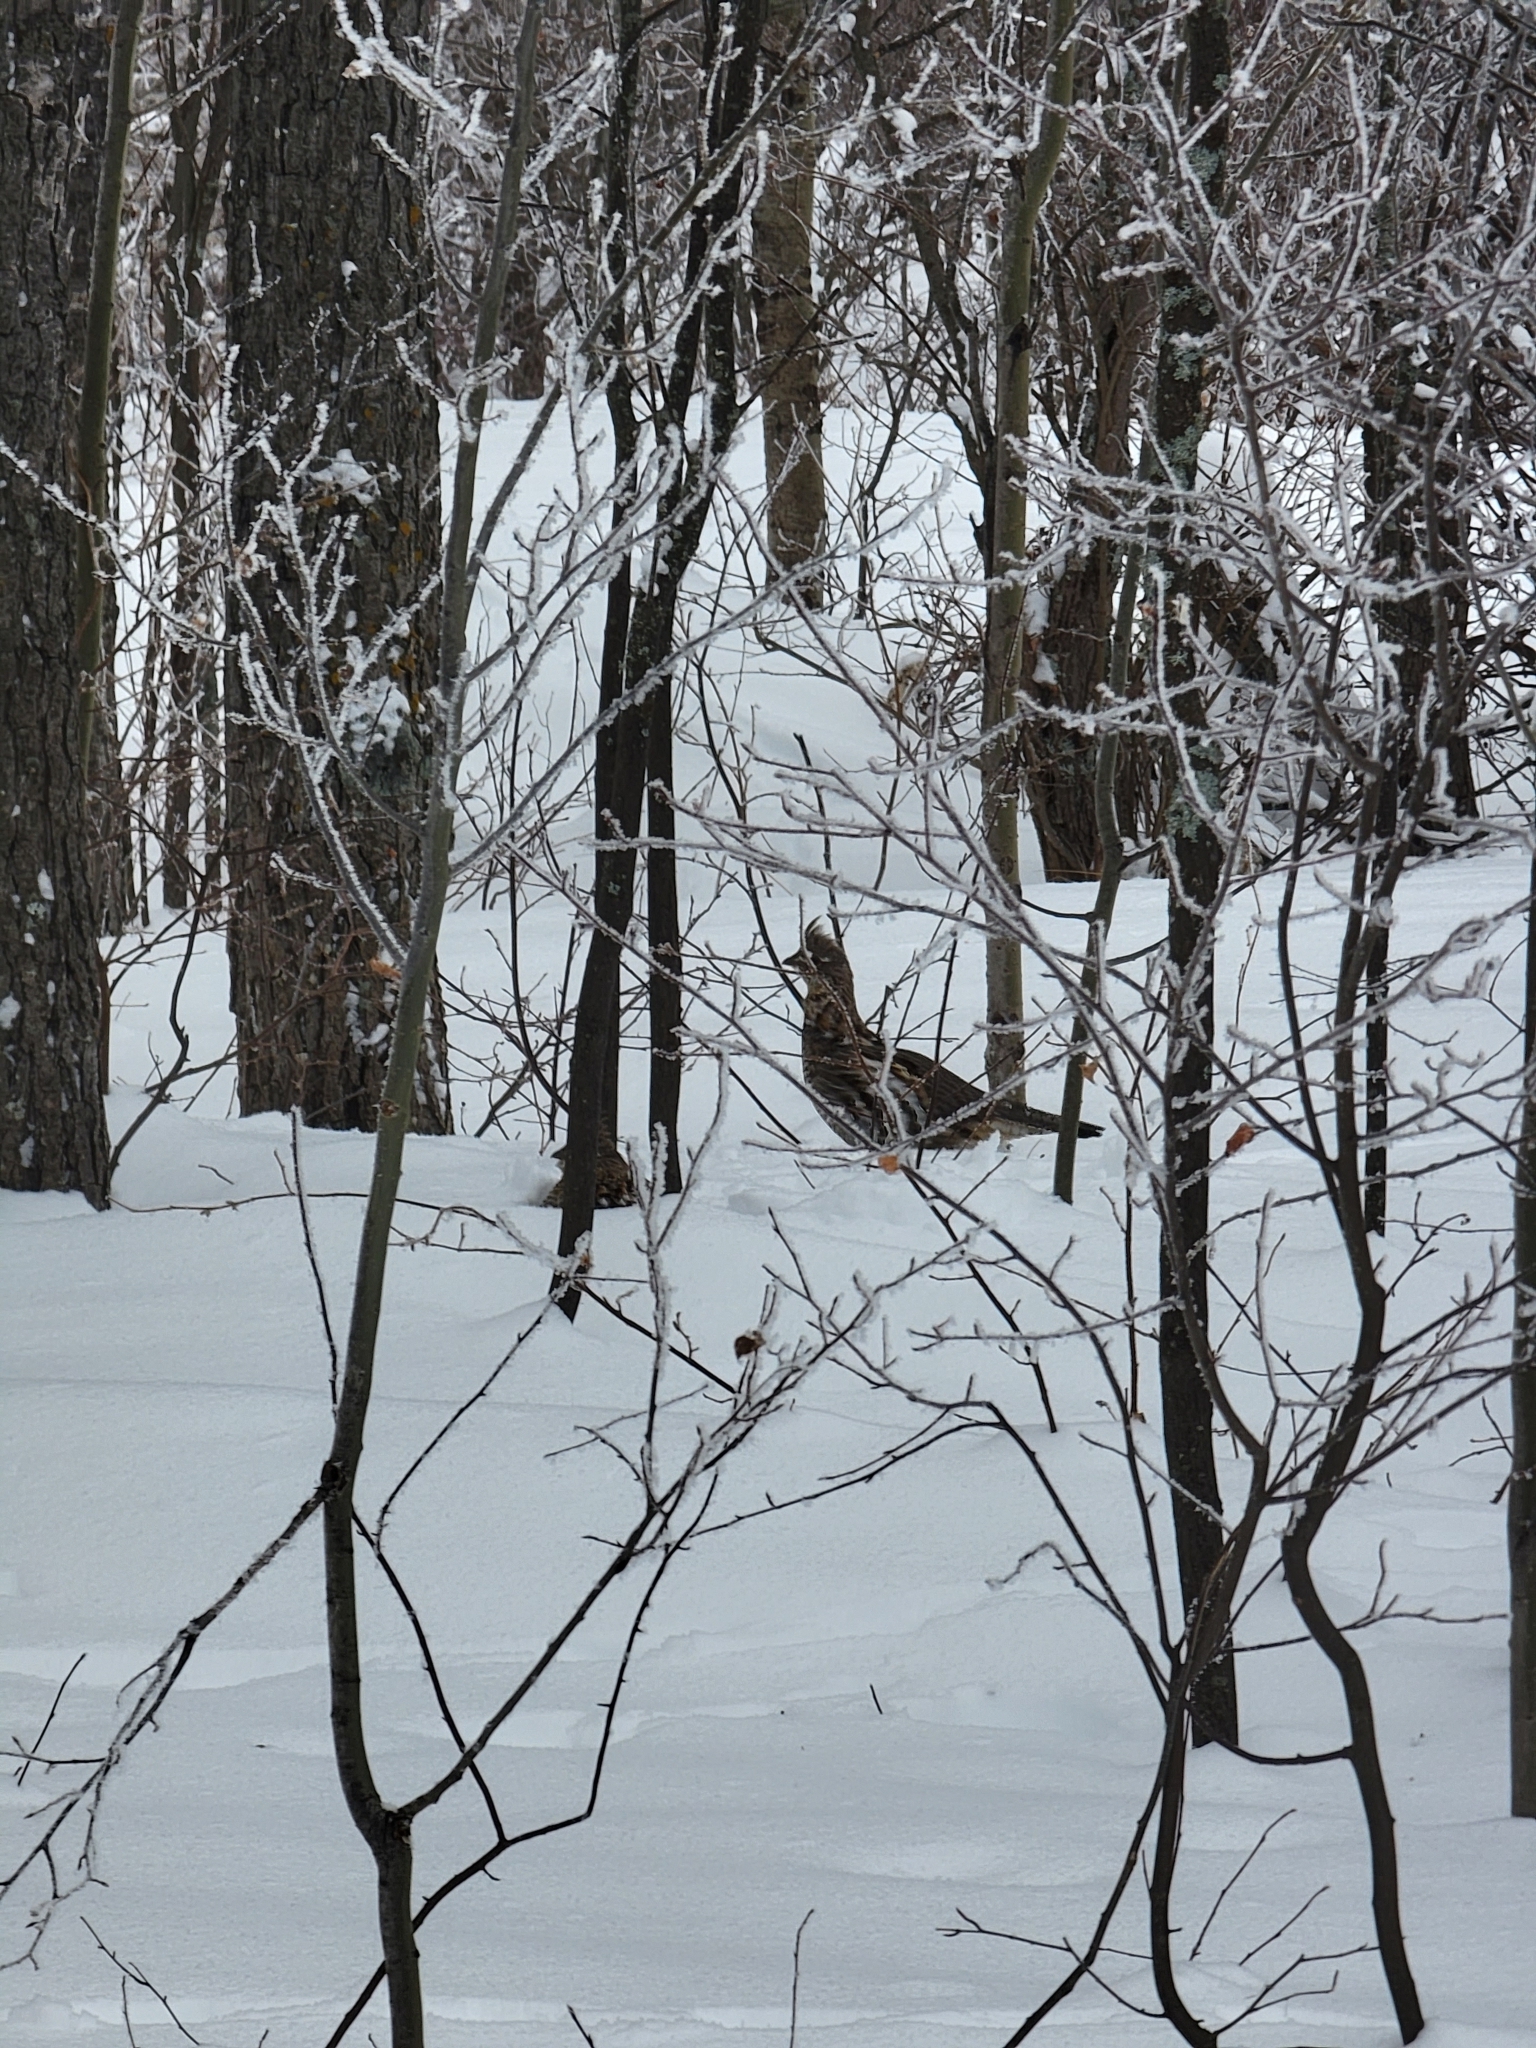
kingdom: Animalia
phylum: Chordata
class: Aves
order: Galliformes
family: Phasianidae
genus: Bonasa
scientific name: Bonasa umbellus
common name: Ruffed grouse
